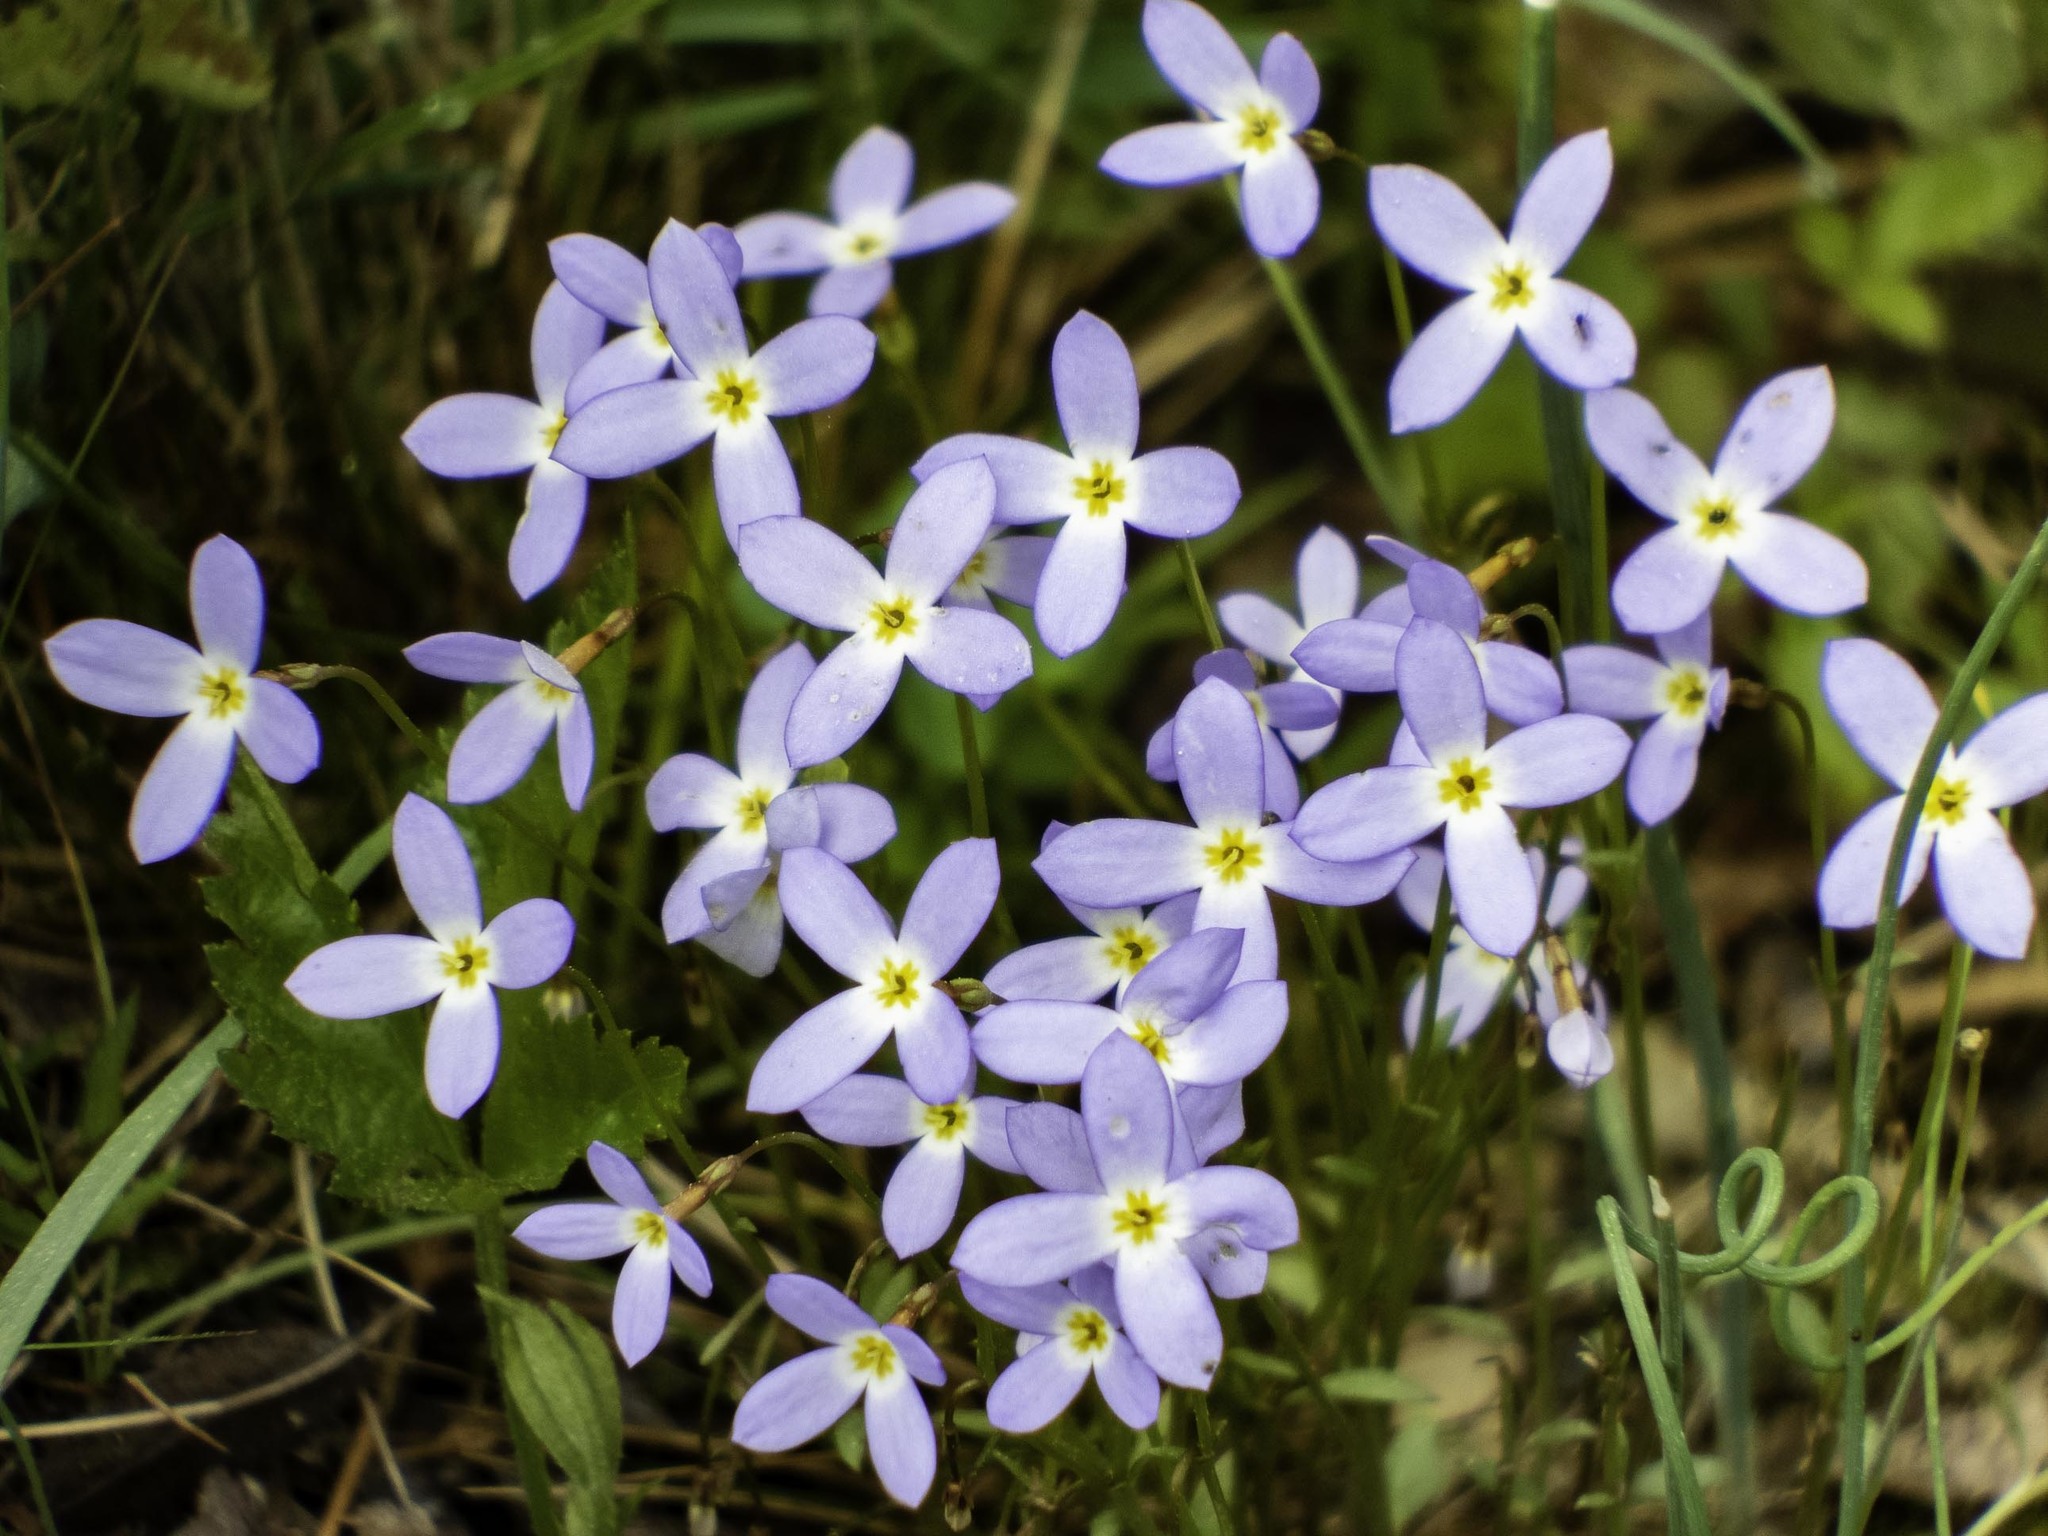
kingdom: Plantae
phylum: Tracheophyta
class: Magnoliopsida
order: Gentianales
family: Rubiaceae
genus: Houstonia
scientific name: Houstonia caerulea
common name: Bluets
